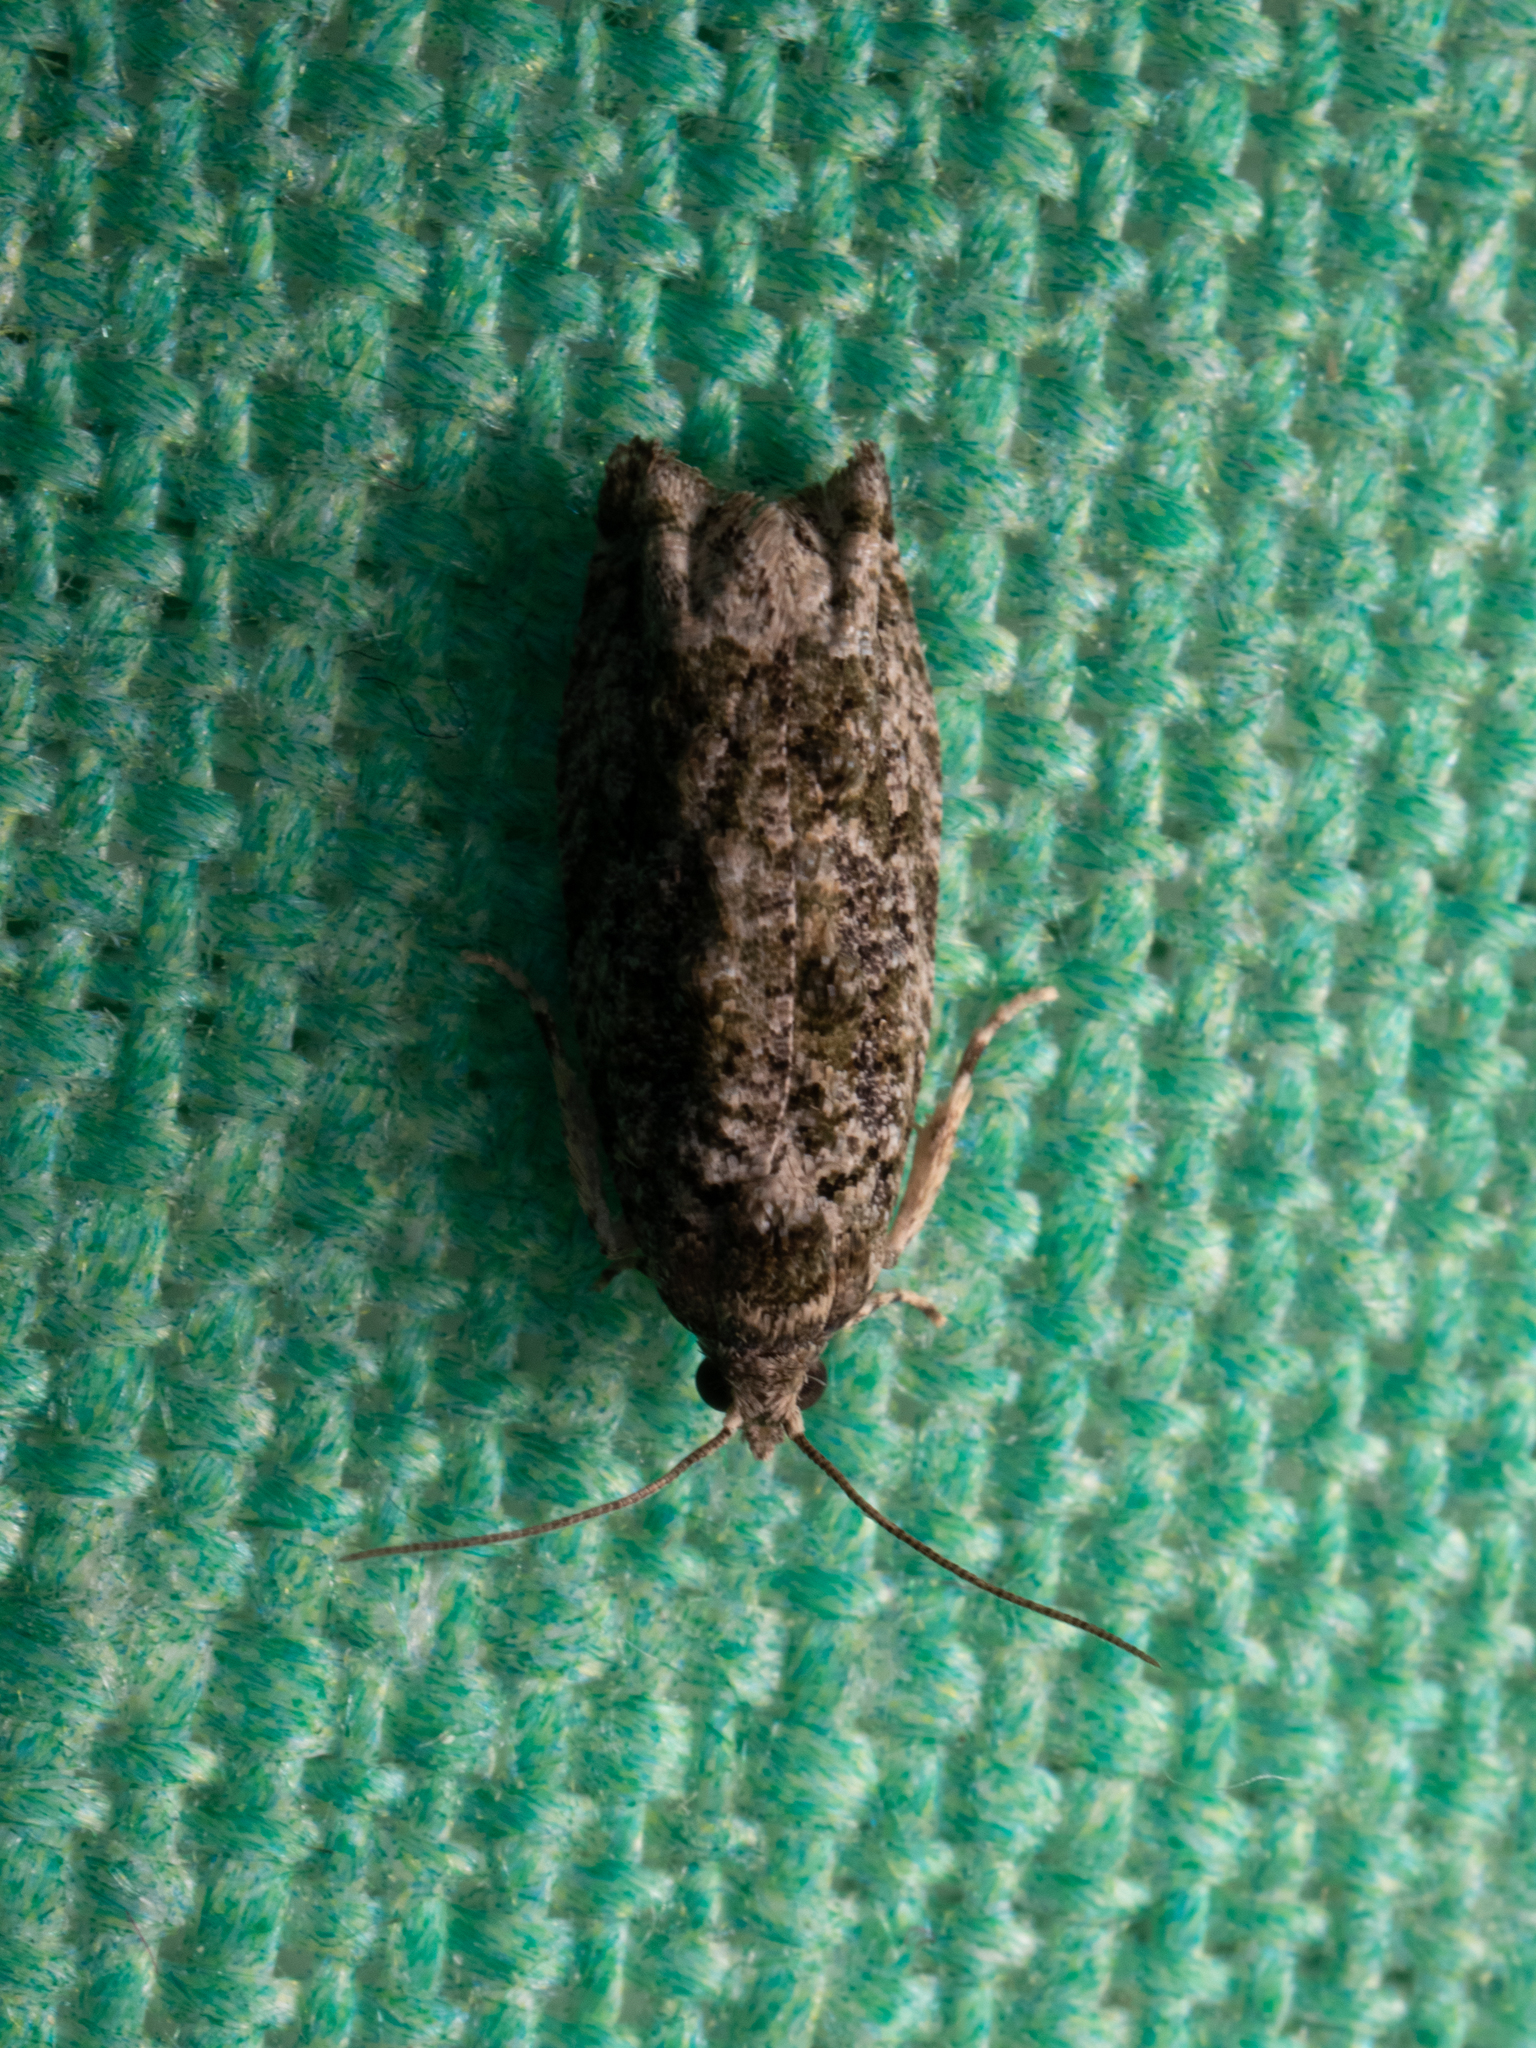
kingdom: Animalia
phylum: Arthropoda
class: Insecta
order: Lepidoptera
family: Tortricidae
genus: Proteoteras
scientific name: Proteoteras aesculana
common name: Maple twig borer moth
